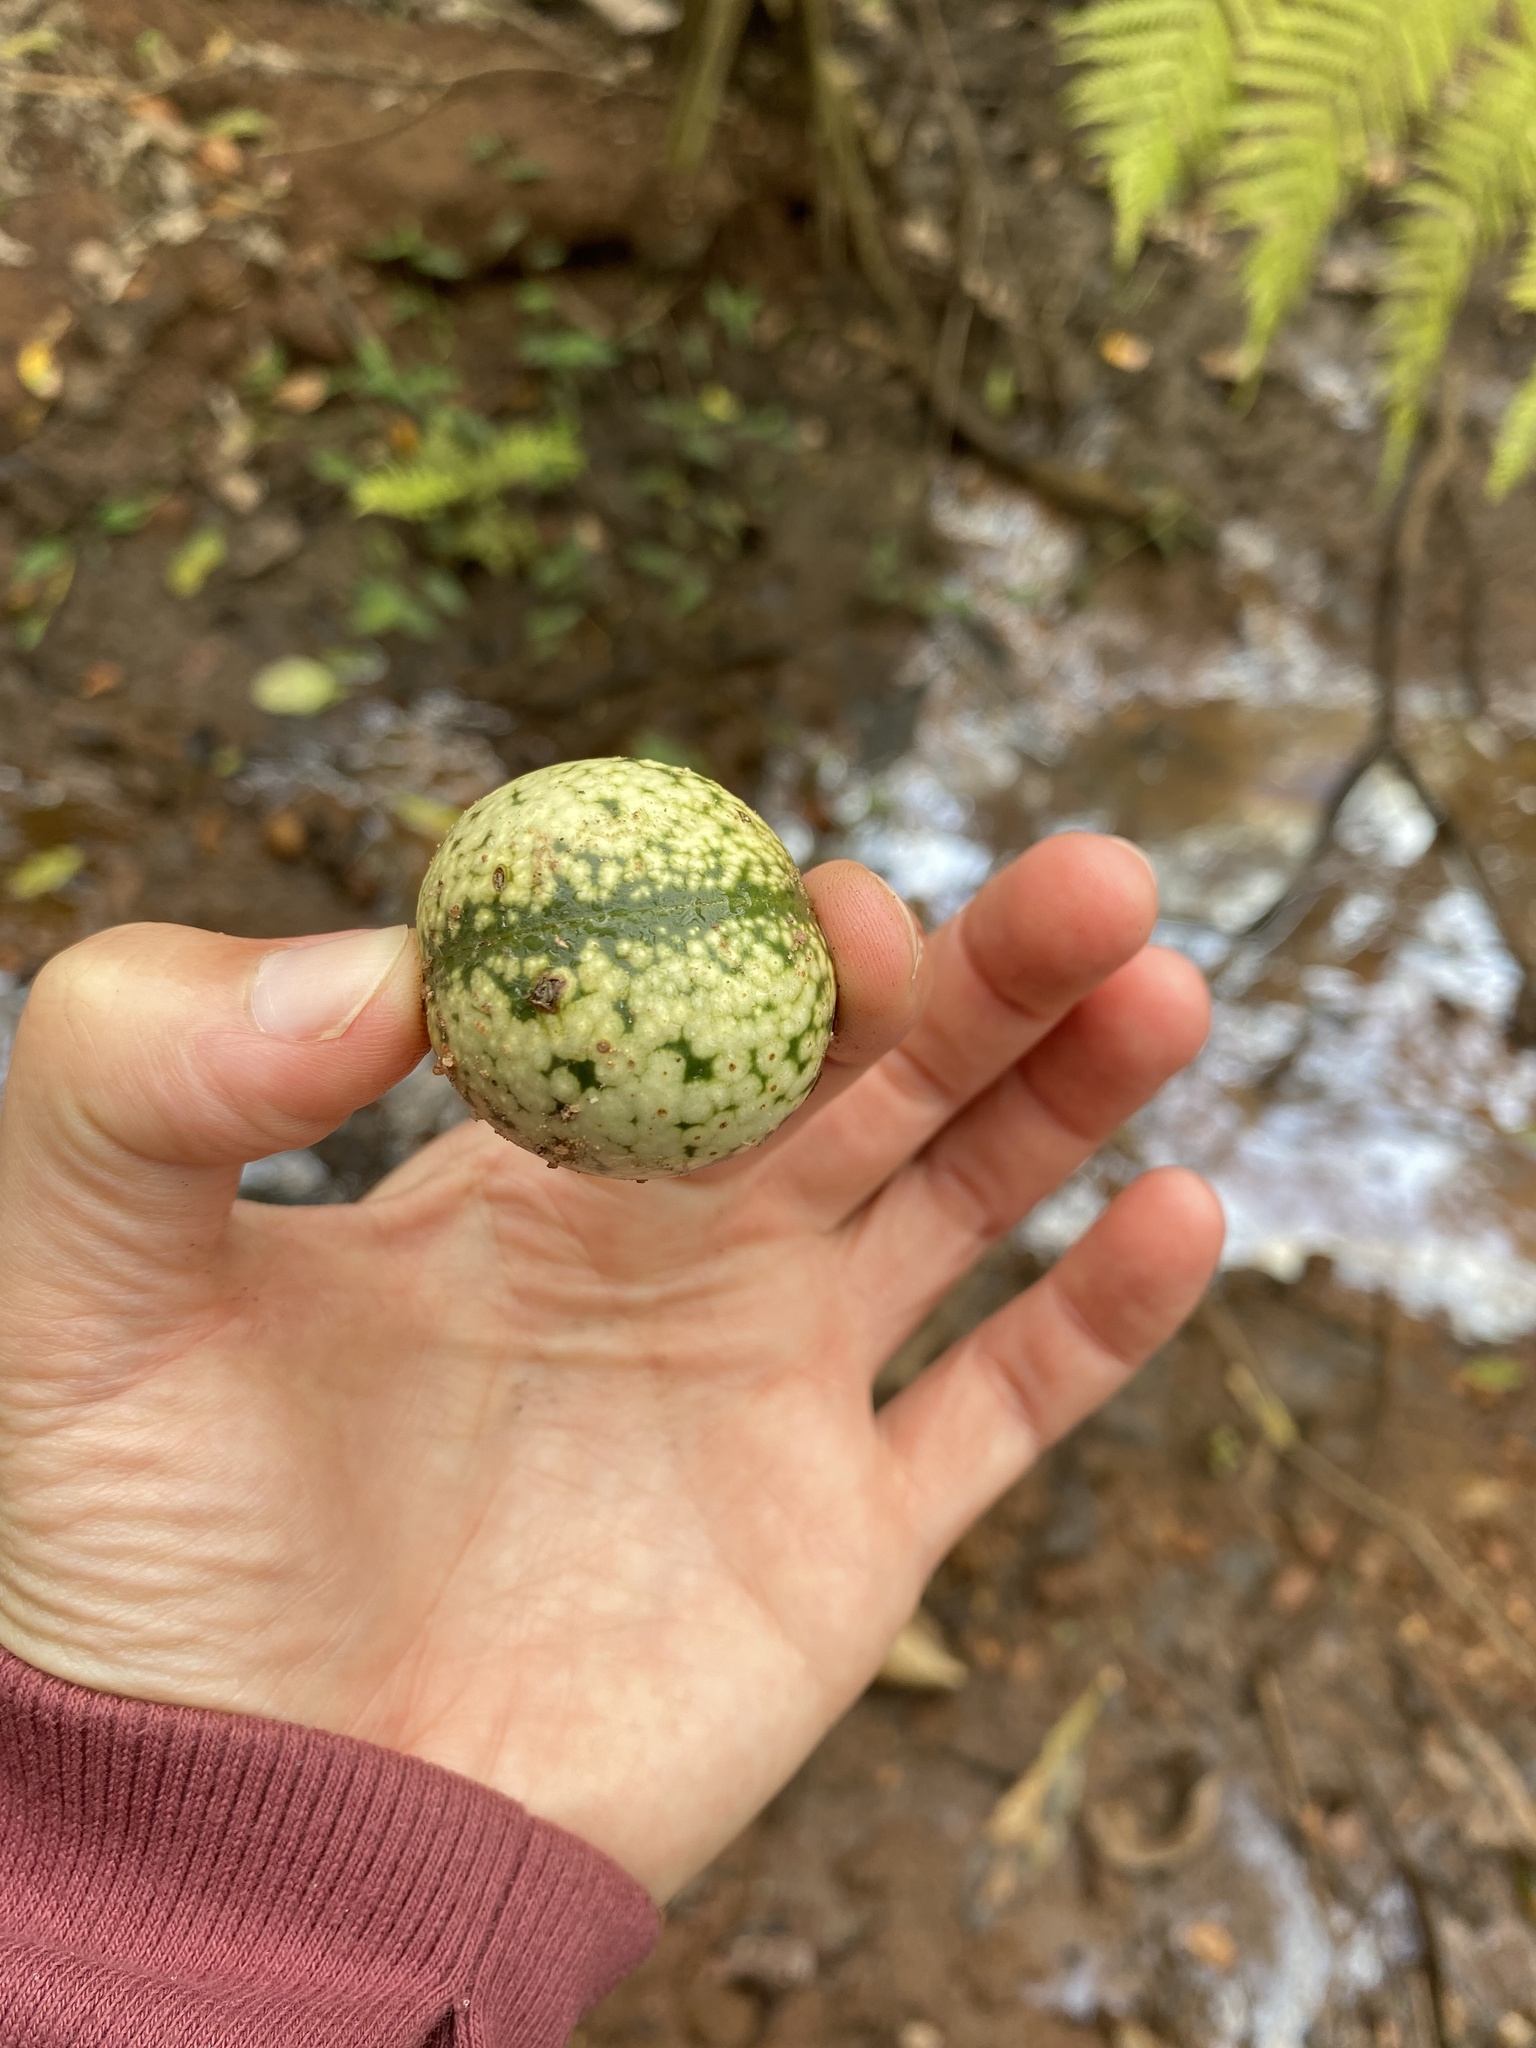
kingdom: Plantae
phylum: Tracheophyta
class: Magnoliopsida
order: Gentianales
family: Apocynaceae
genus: Voacanga
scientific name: Voacanga thouarsii
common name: Wild frangipani
